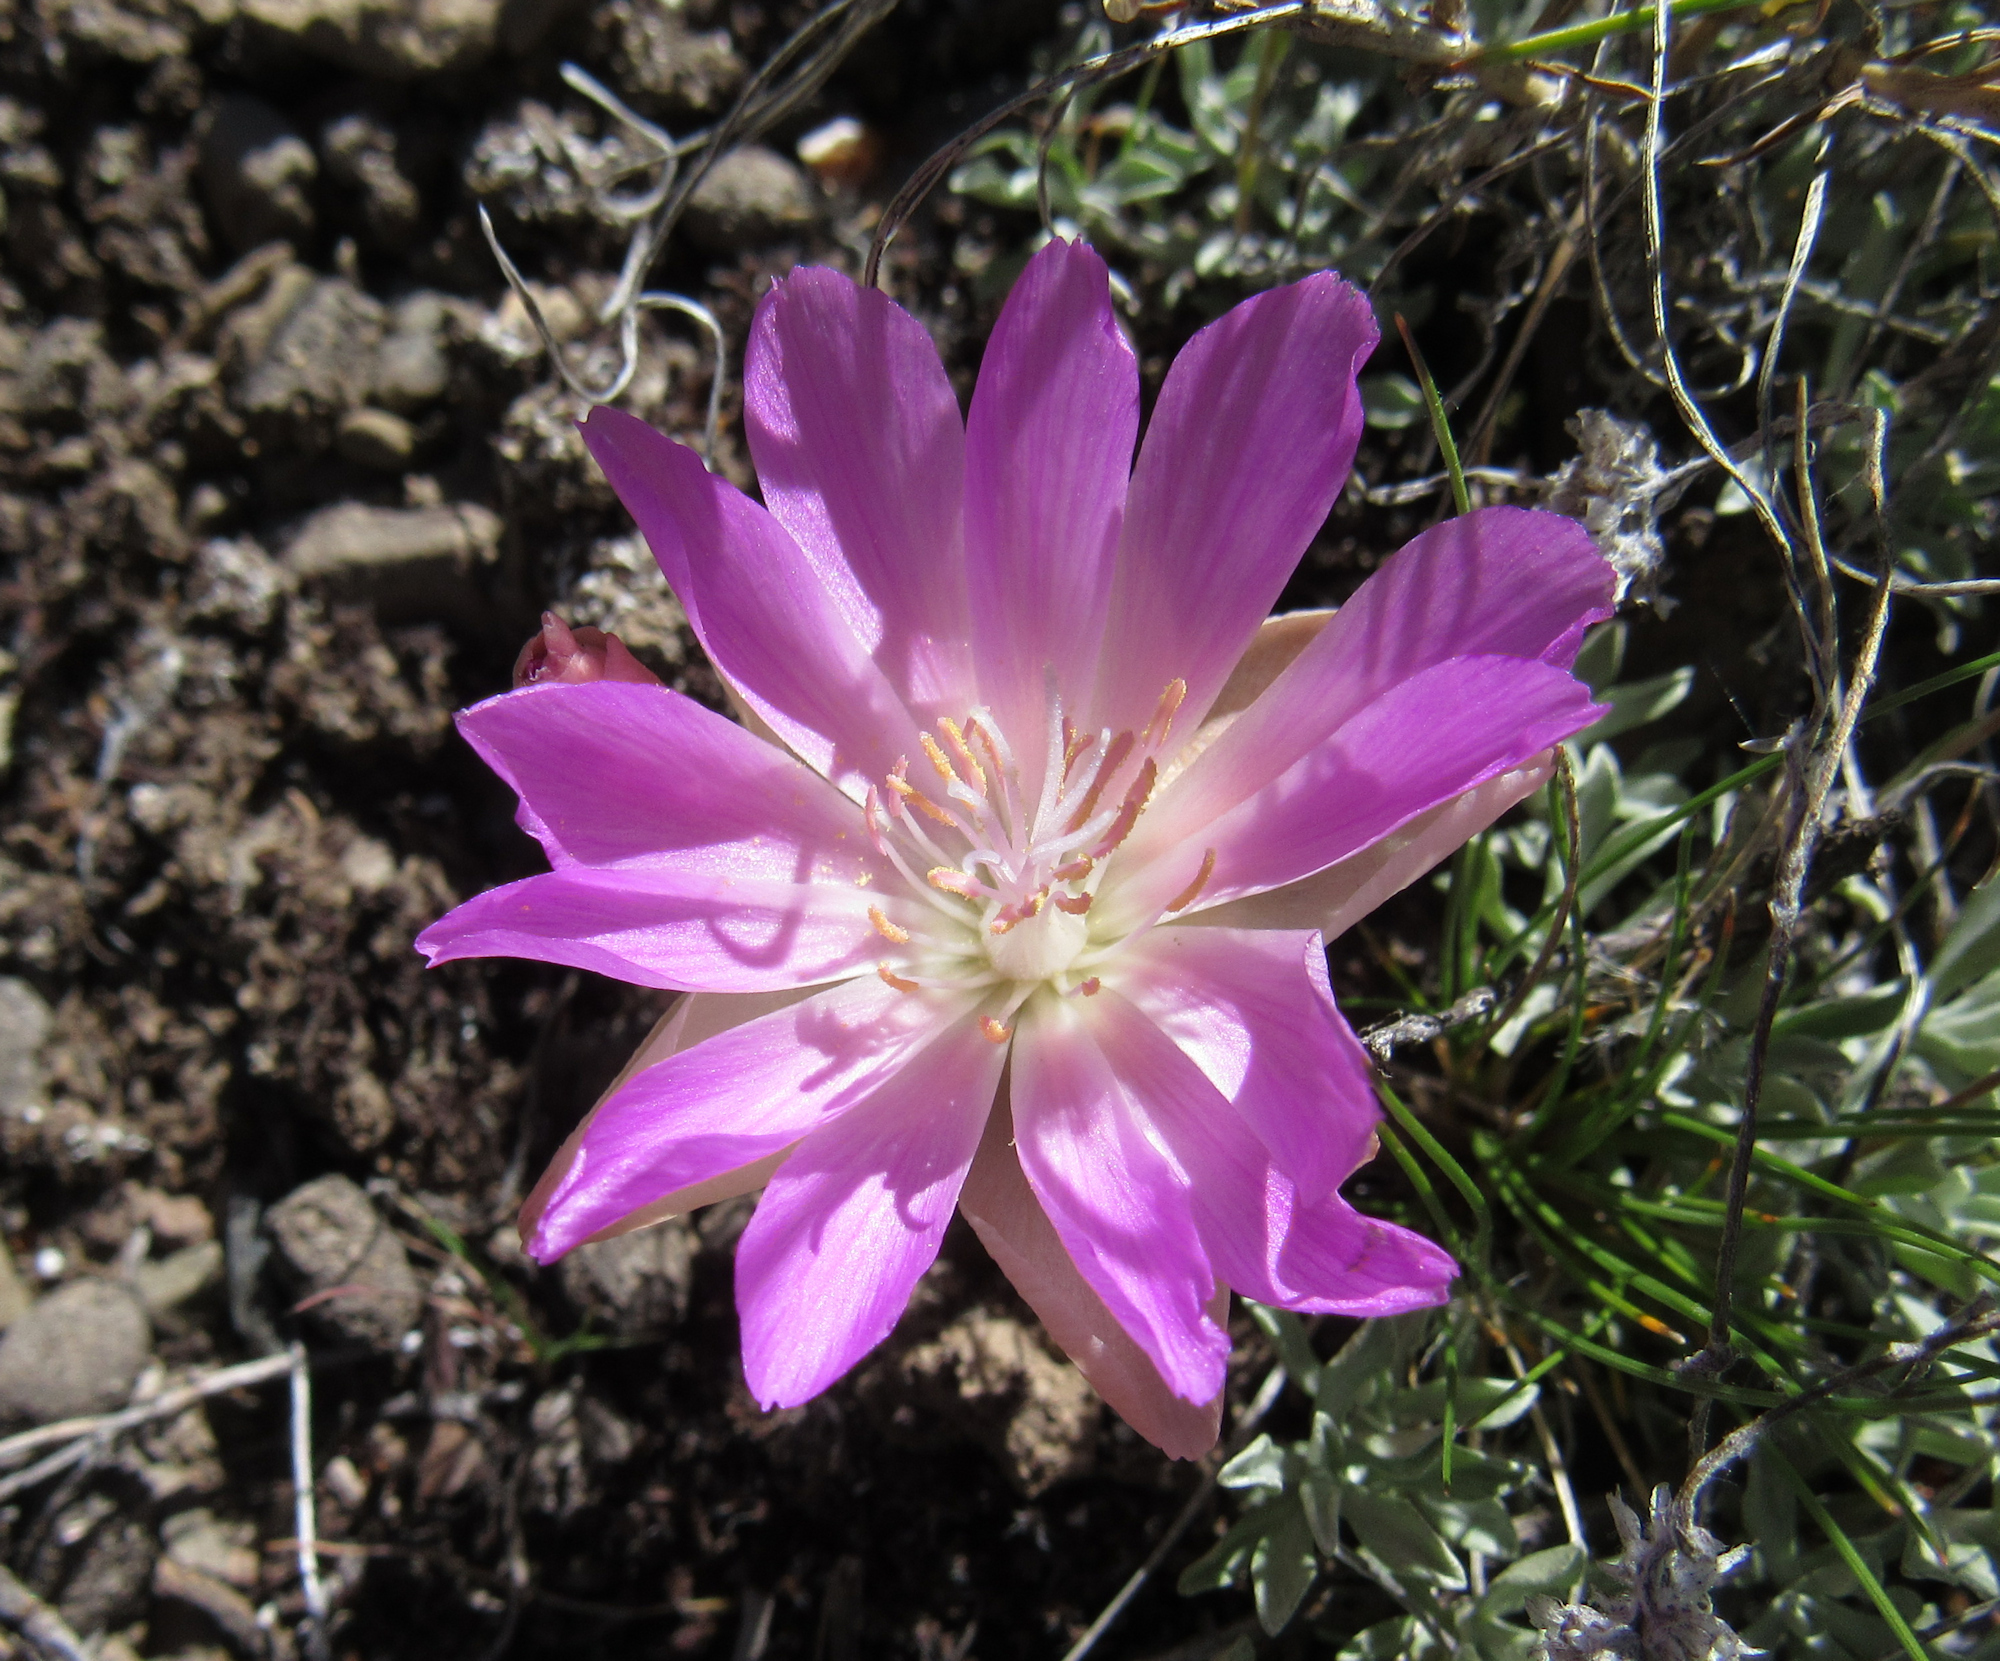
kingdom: Plantae
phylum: Tracheophyta
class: Magnoliopsida
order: Caryophyllales
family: Montiaceae
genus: Lewisia
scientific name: Lewisia rediviva
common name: Bitter-root
